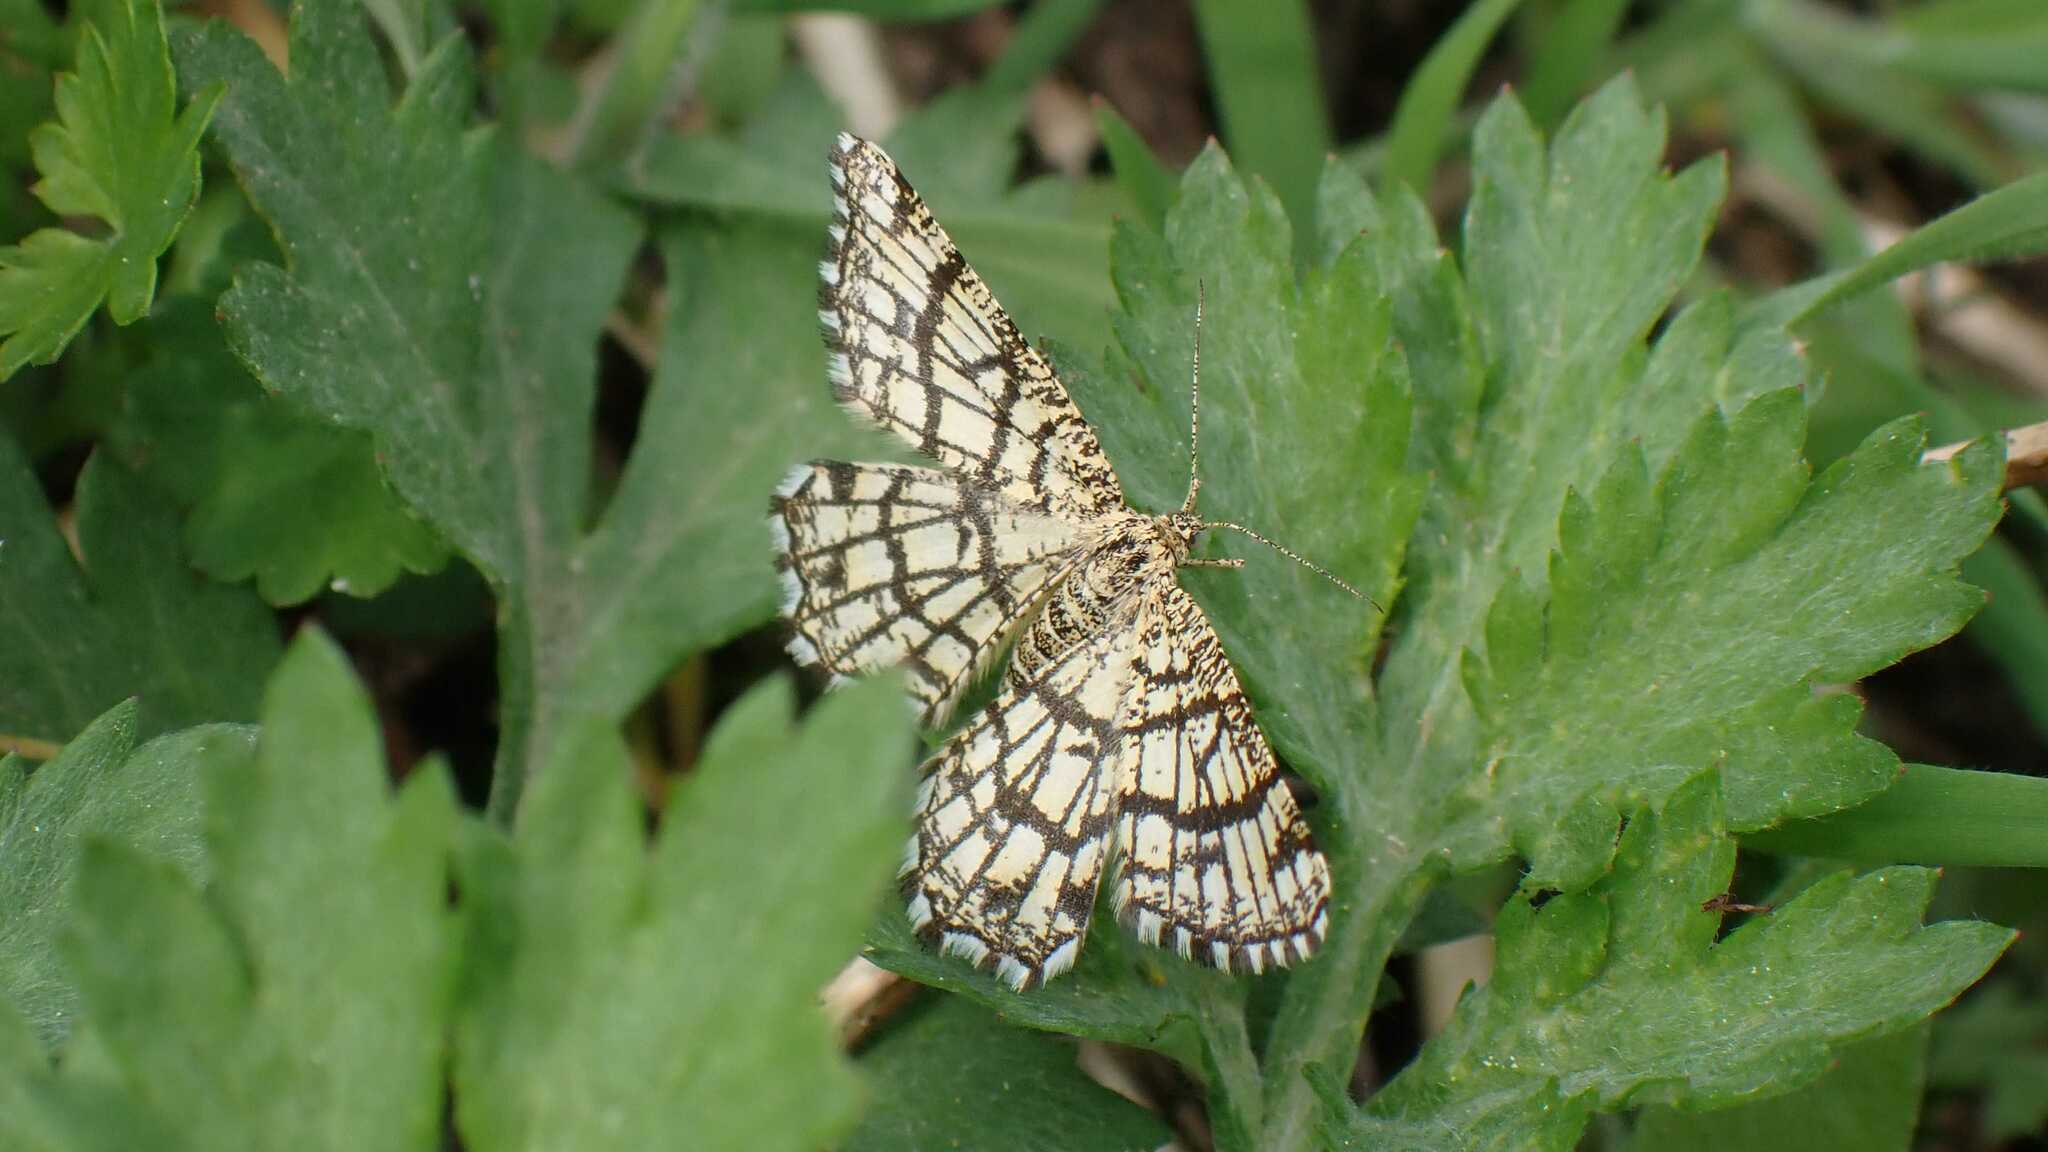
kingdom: Animalia
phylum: Arthropoda
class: Insecta
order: Lepidoptera
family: Geometridae
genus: Chiasmia
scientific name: Chiasmia clathrata
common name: Latticed heath
